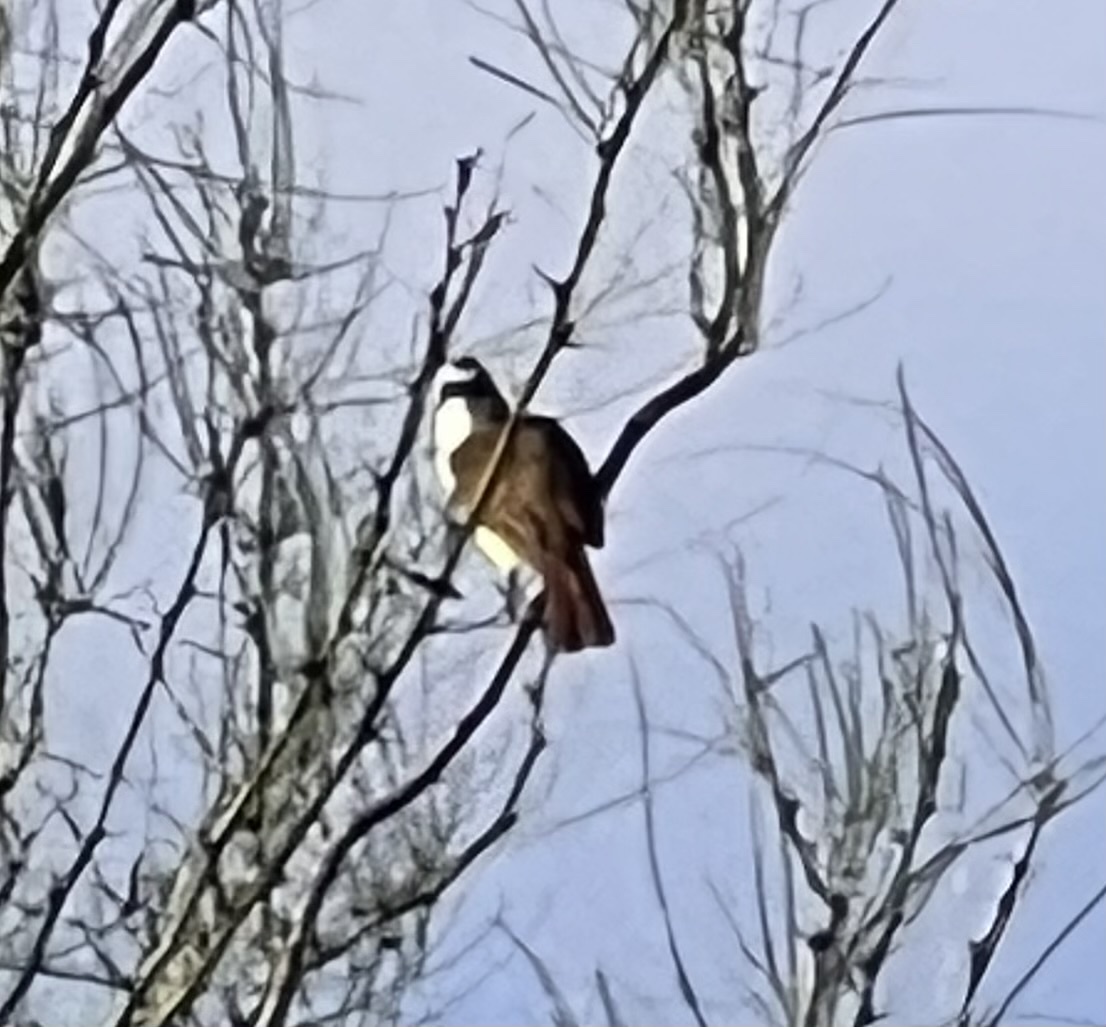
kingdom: Animalia
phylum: Chordata
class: Aves
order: Passeriformes
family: Tyrannidae
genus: Pitangus
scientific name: Pitangus sulphuratus
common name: Great kiskadee
